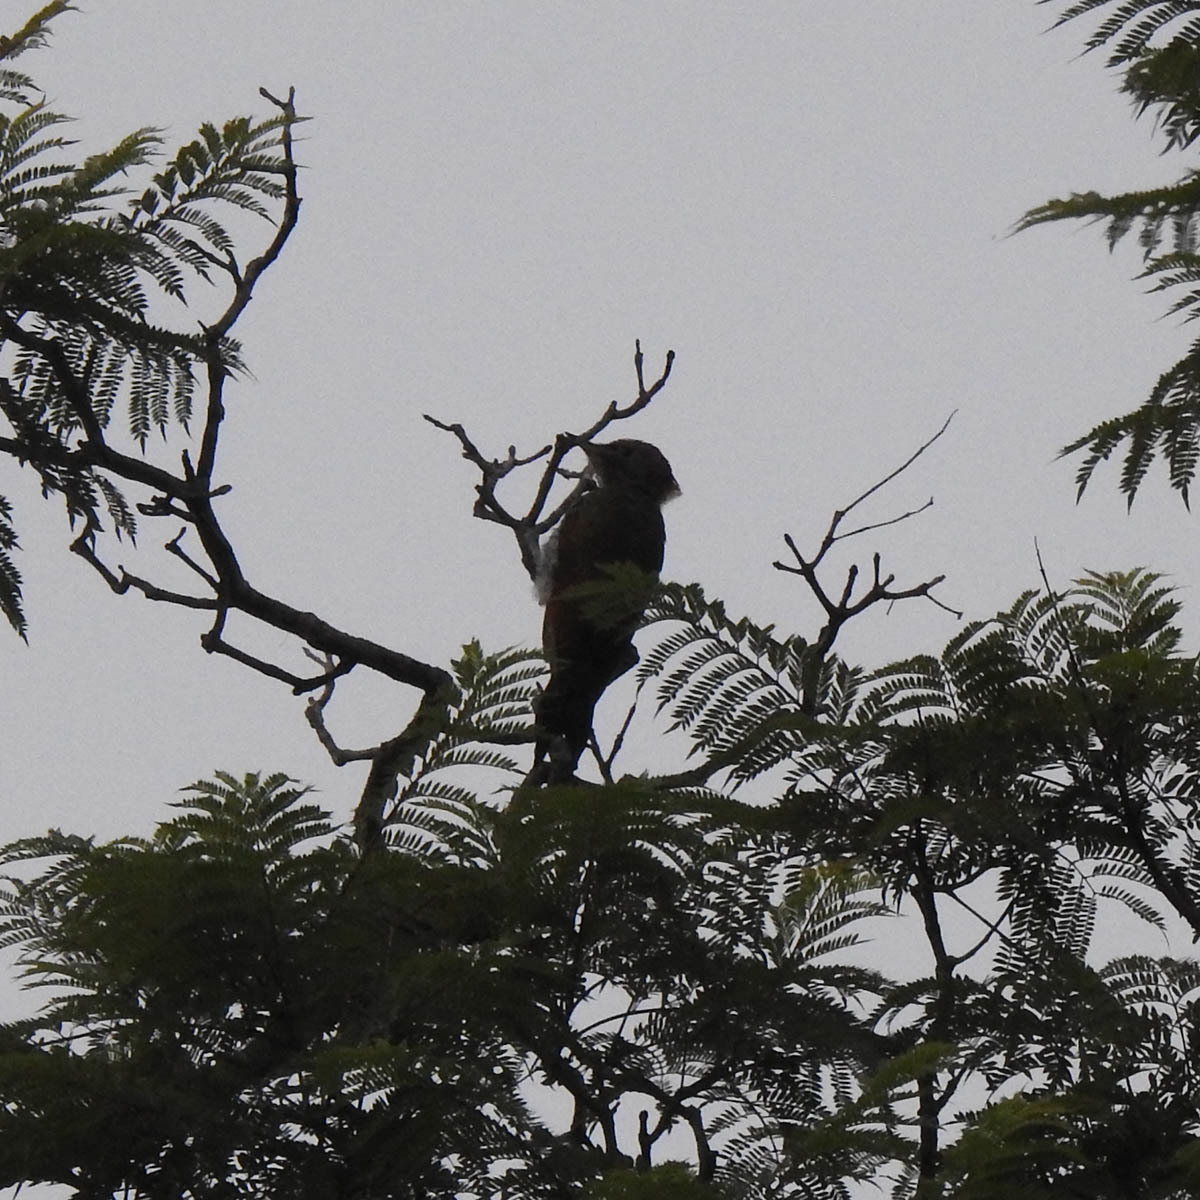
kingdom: Animalia
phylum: Chordata
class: Aves
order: Piciformes
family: Picidae
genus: Picus
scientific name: Picus chlorolophus
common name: Lesser yellownape
